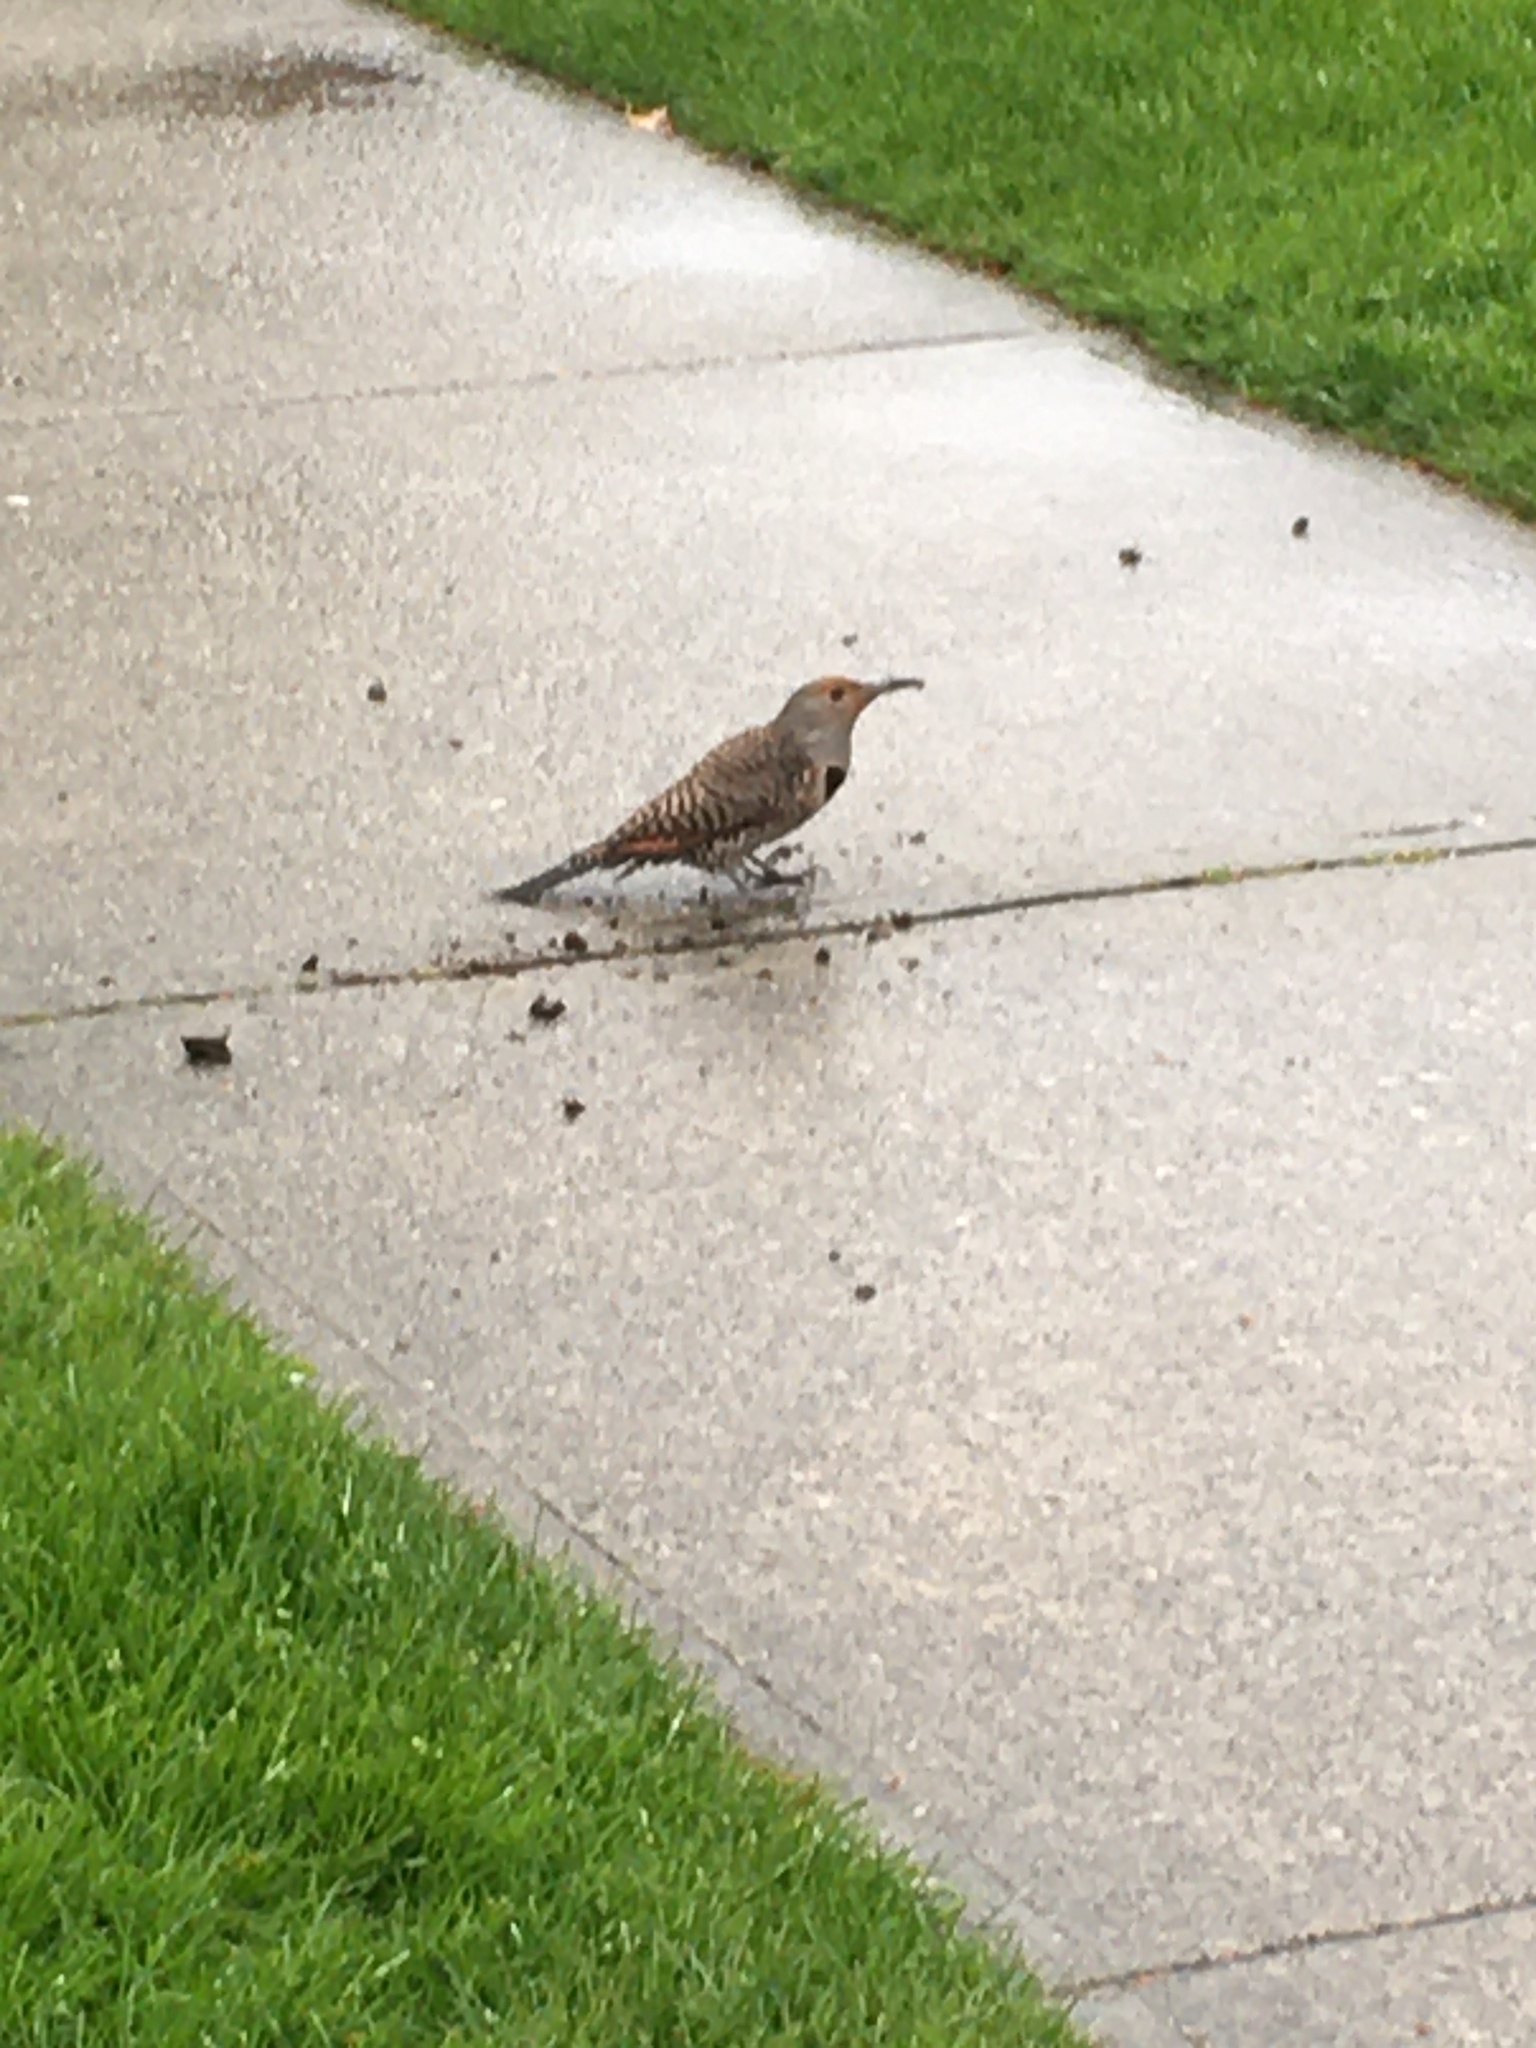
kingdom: Animalia
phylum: Chordata
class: Aves
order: Piciformes
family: Picidae
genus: Colaptes
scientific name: Colaptes auratus
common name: Northern flicker
